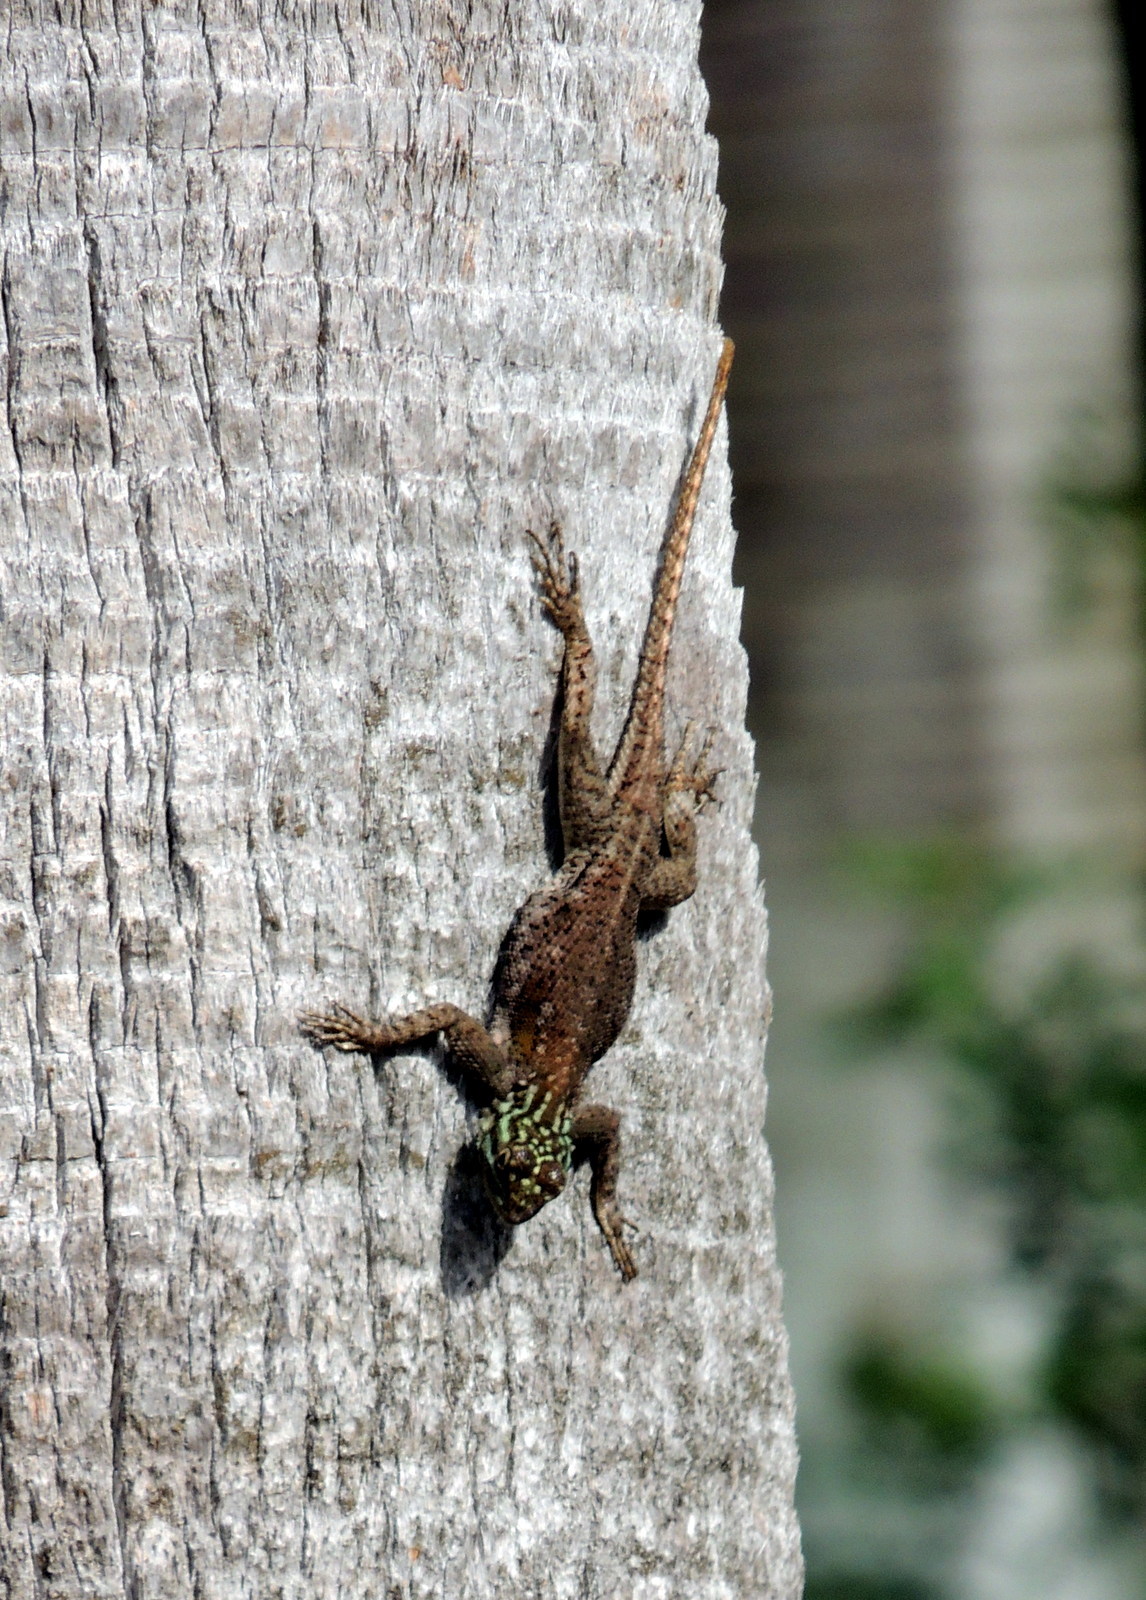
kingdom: Animalia
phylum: Chordata
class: Squamata
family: Agamidae
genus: Agama
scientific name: Agama picticauda
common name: Red-headed agama
